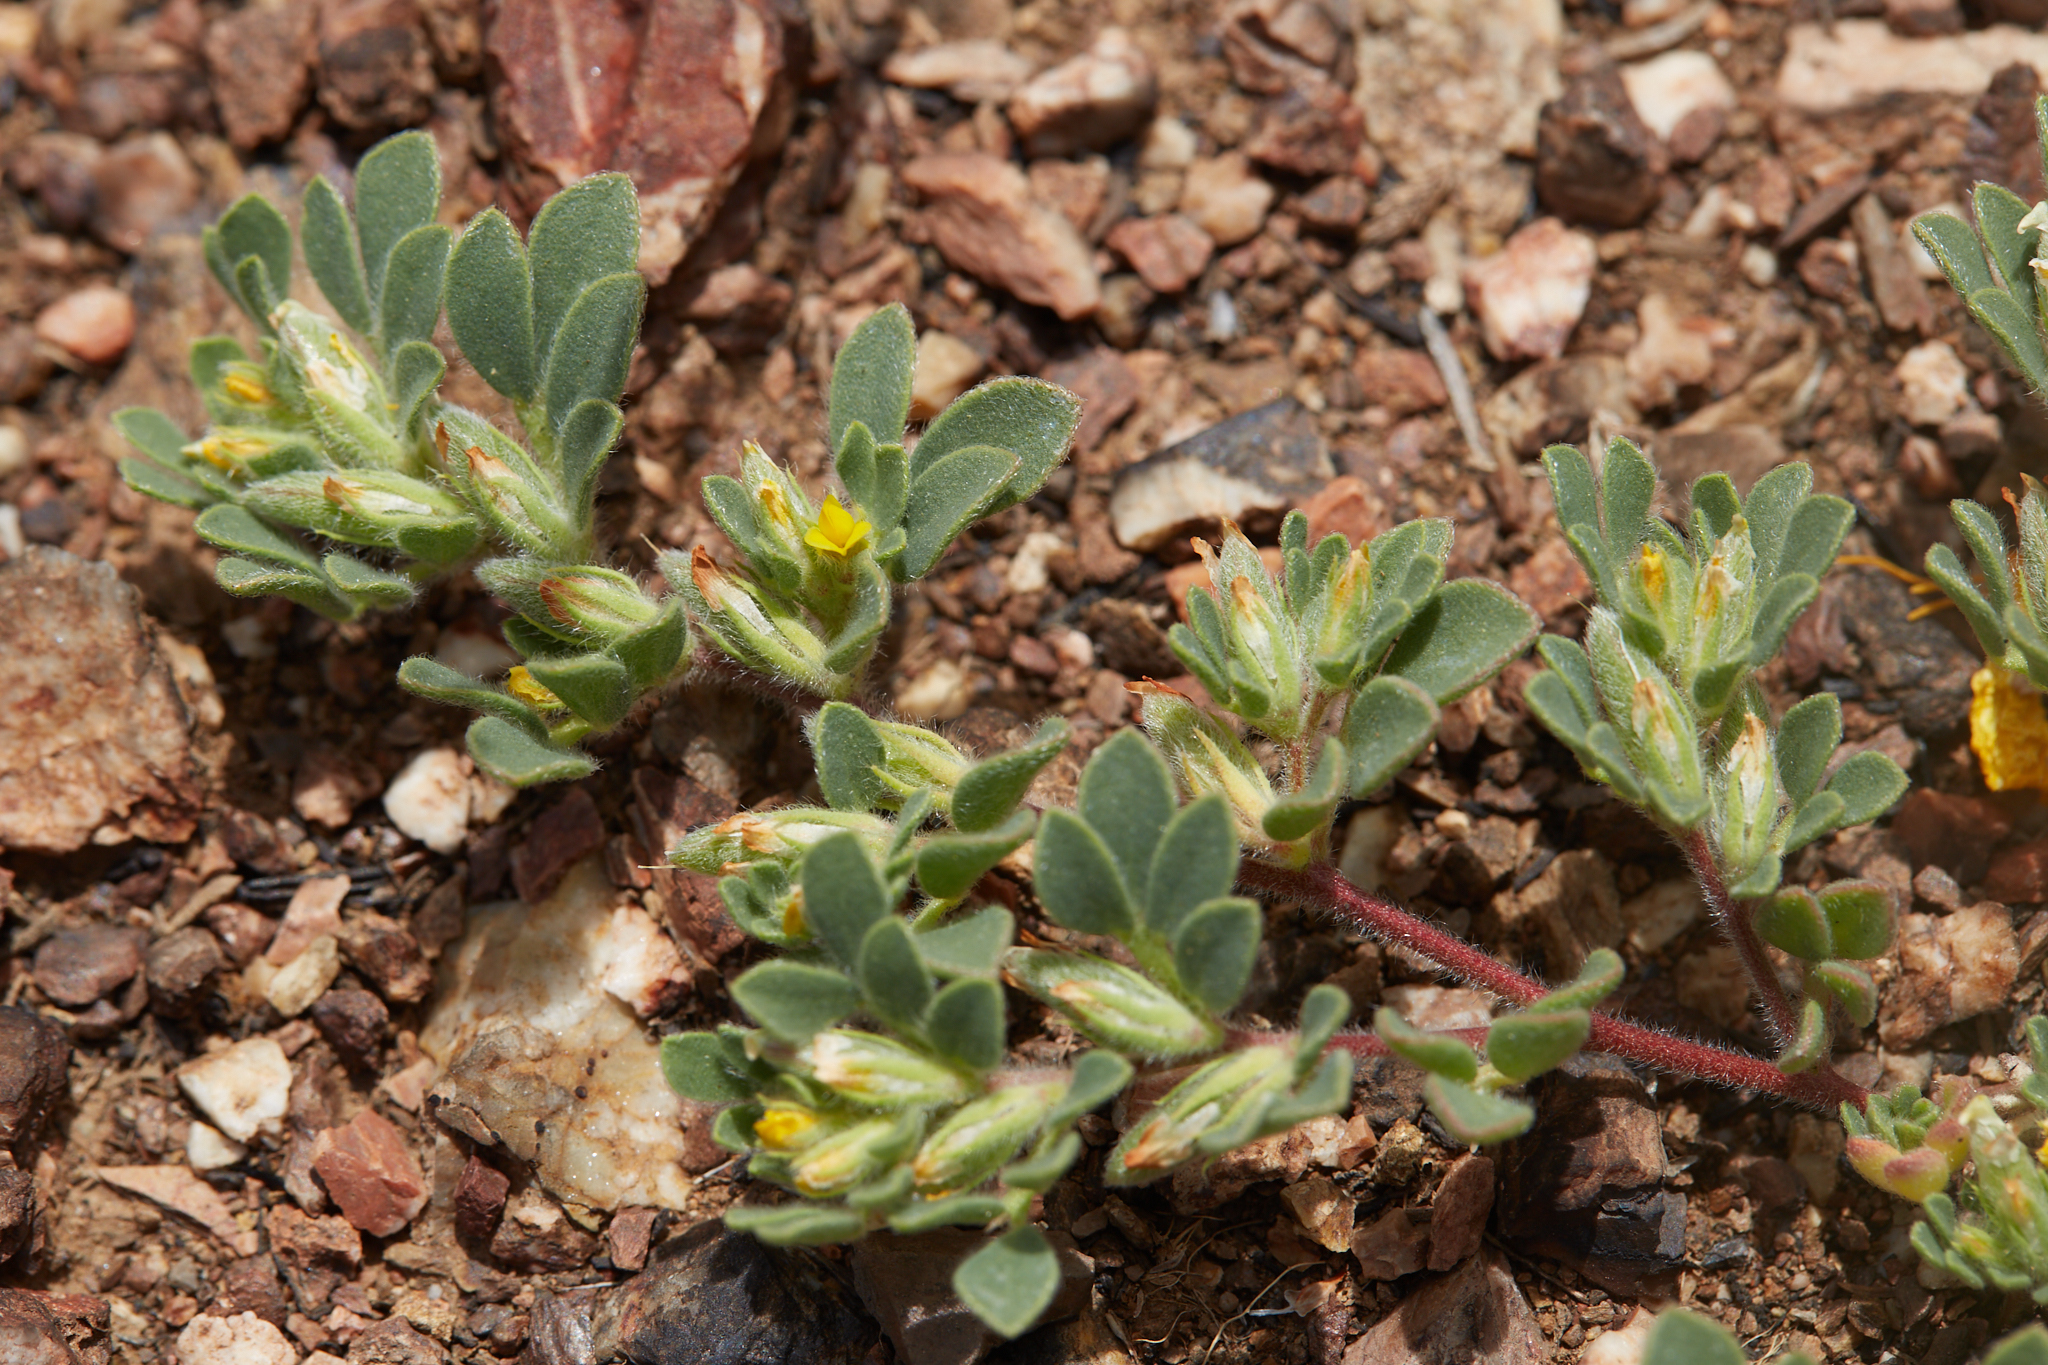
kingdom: Plantae
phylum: Tracheophyta
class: Magnoliopsida
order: Fabales
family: Fabaceae
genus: Acmispon
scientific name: Acmispon brachycarpus
